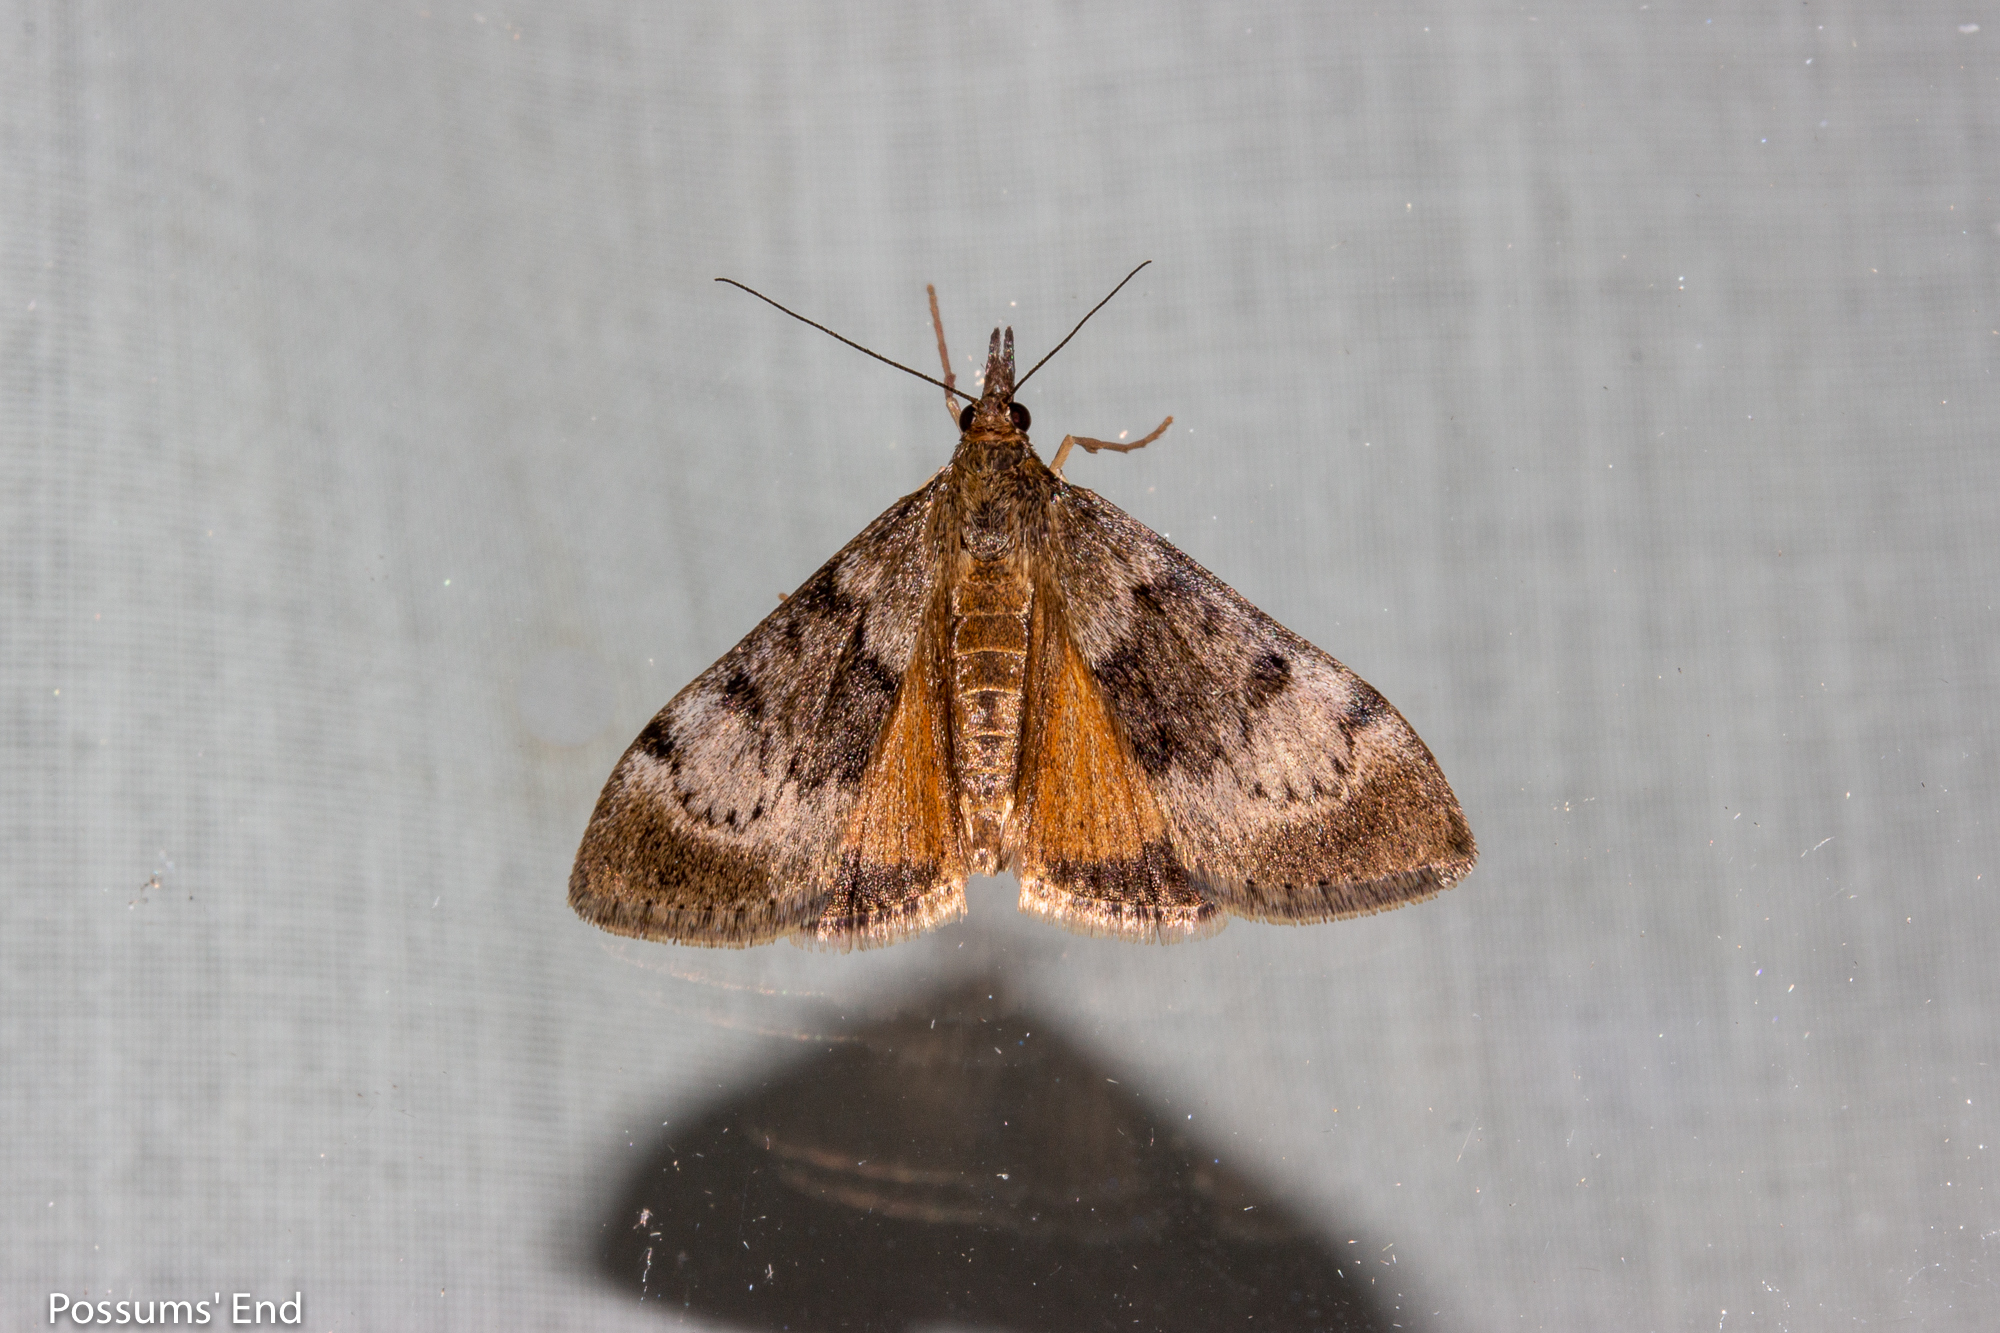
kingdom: Animalia
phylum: Arthropoda
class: Insecta
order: Lepidoptera
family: Crambidae
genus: Uresiphita
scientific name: Uresiphita
